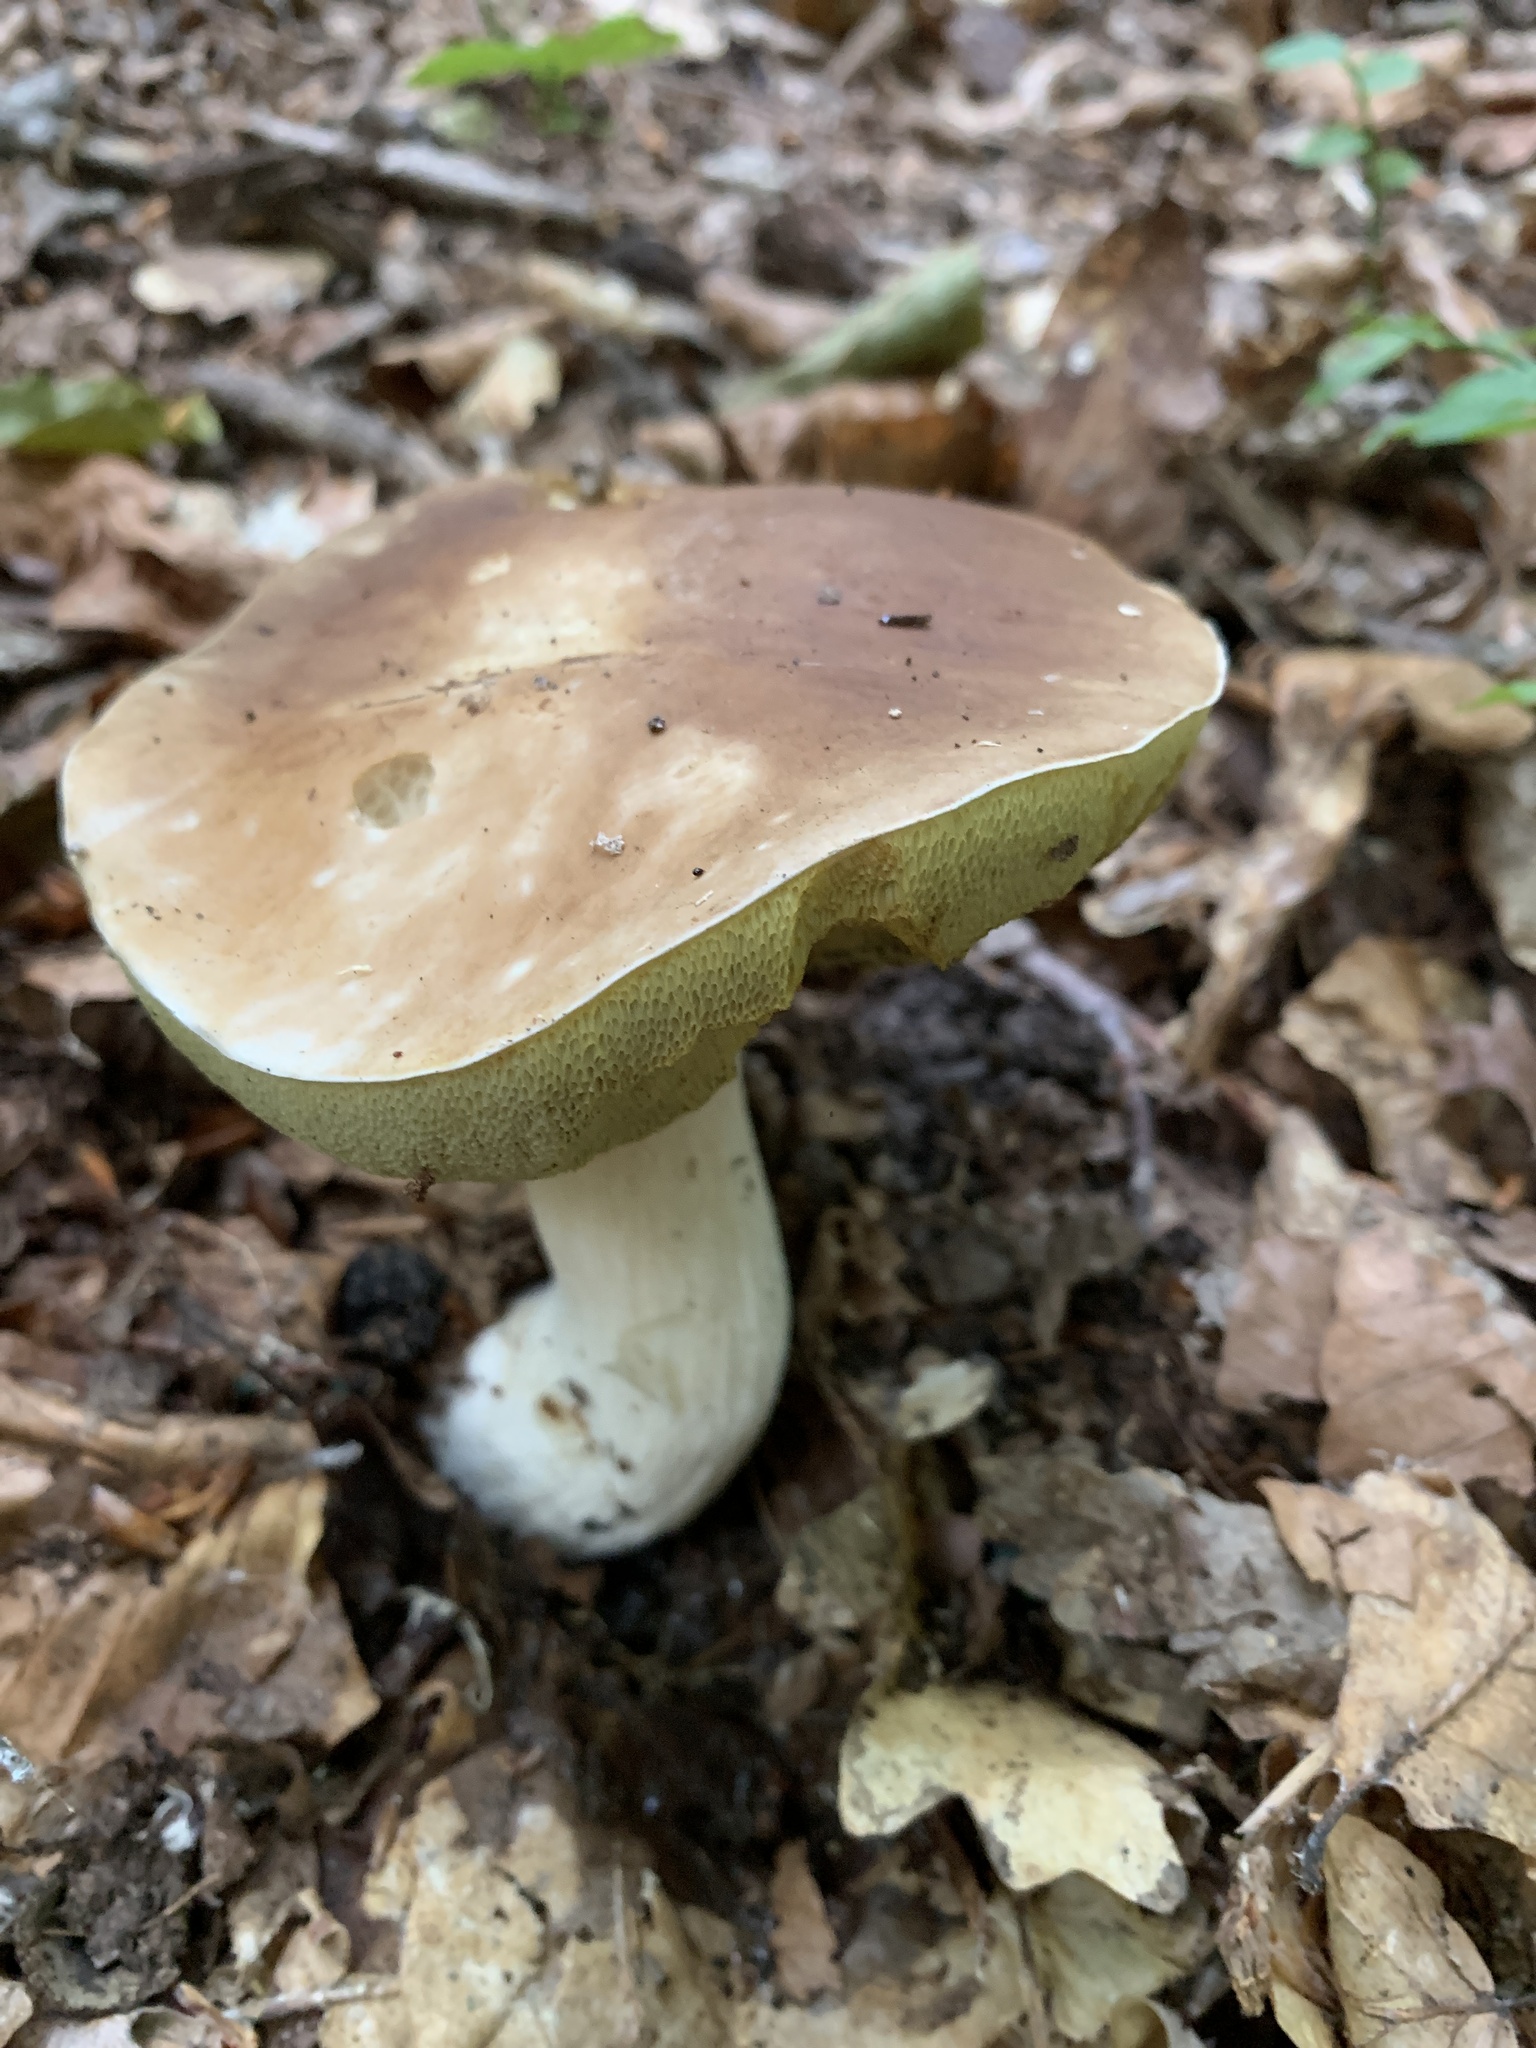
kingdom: Fungi
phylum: Basidiomycota
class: Agaricomycetes
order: Boletales
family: Boletaceae
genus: Boletus
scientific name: Boletus edulis
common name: Cep
